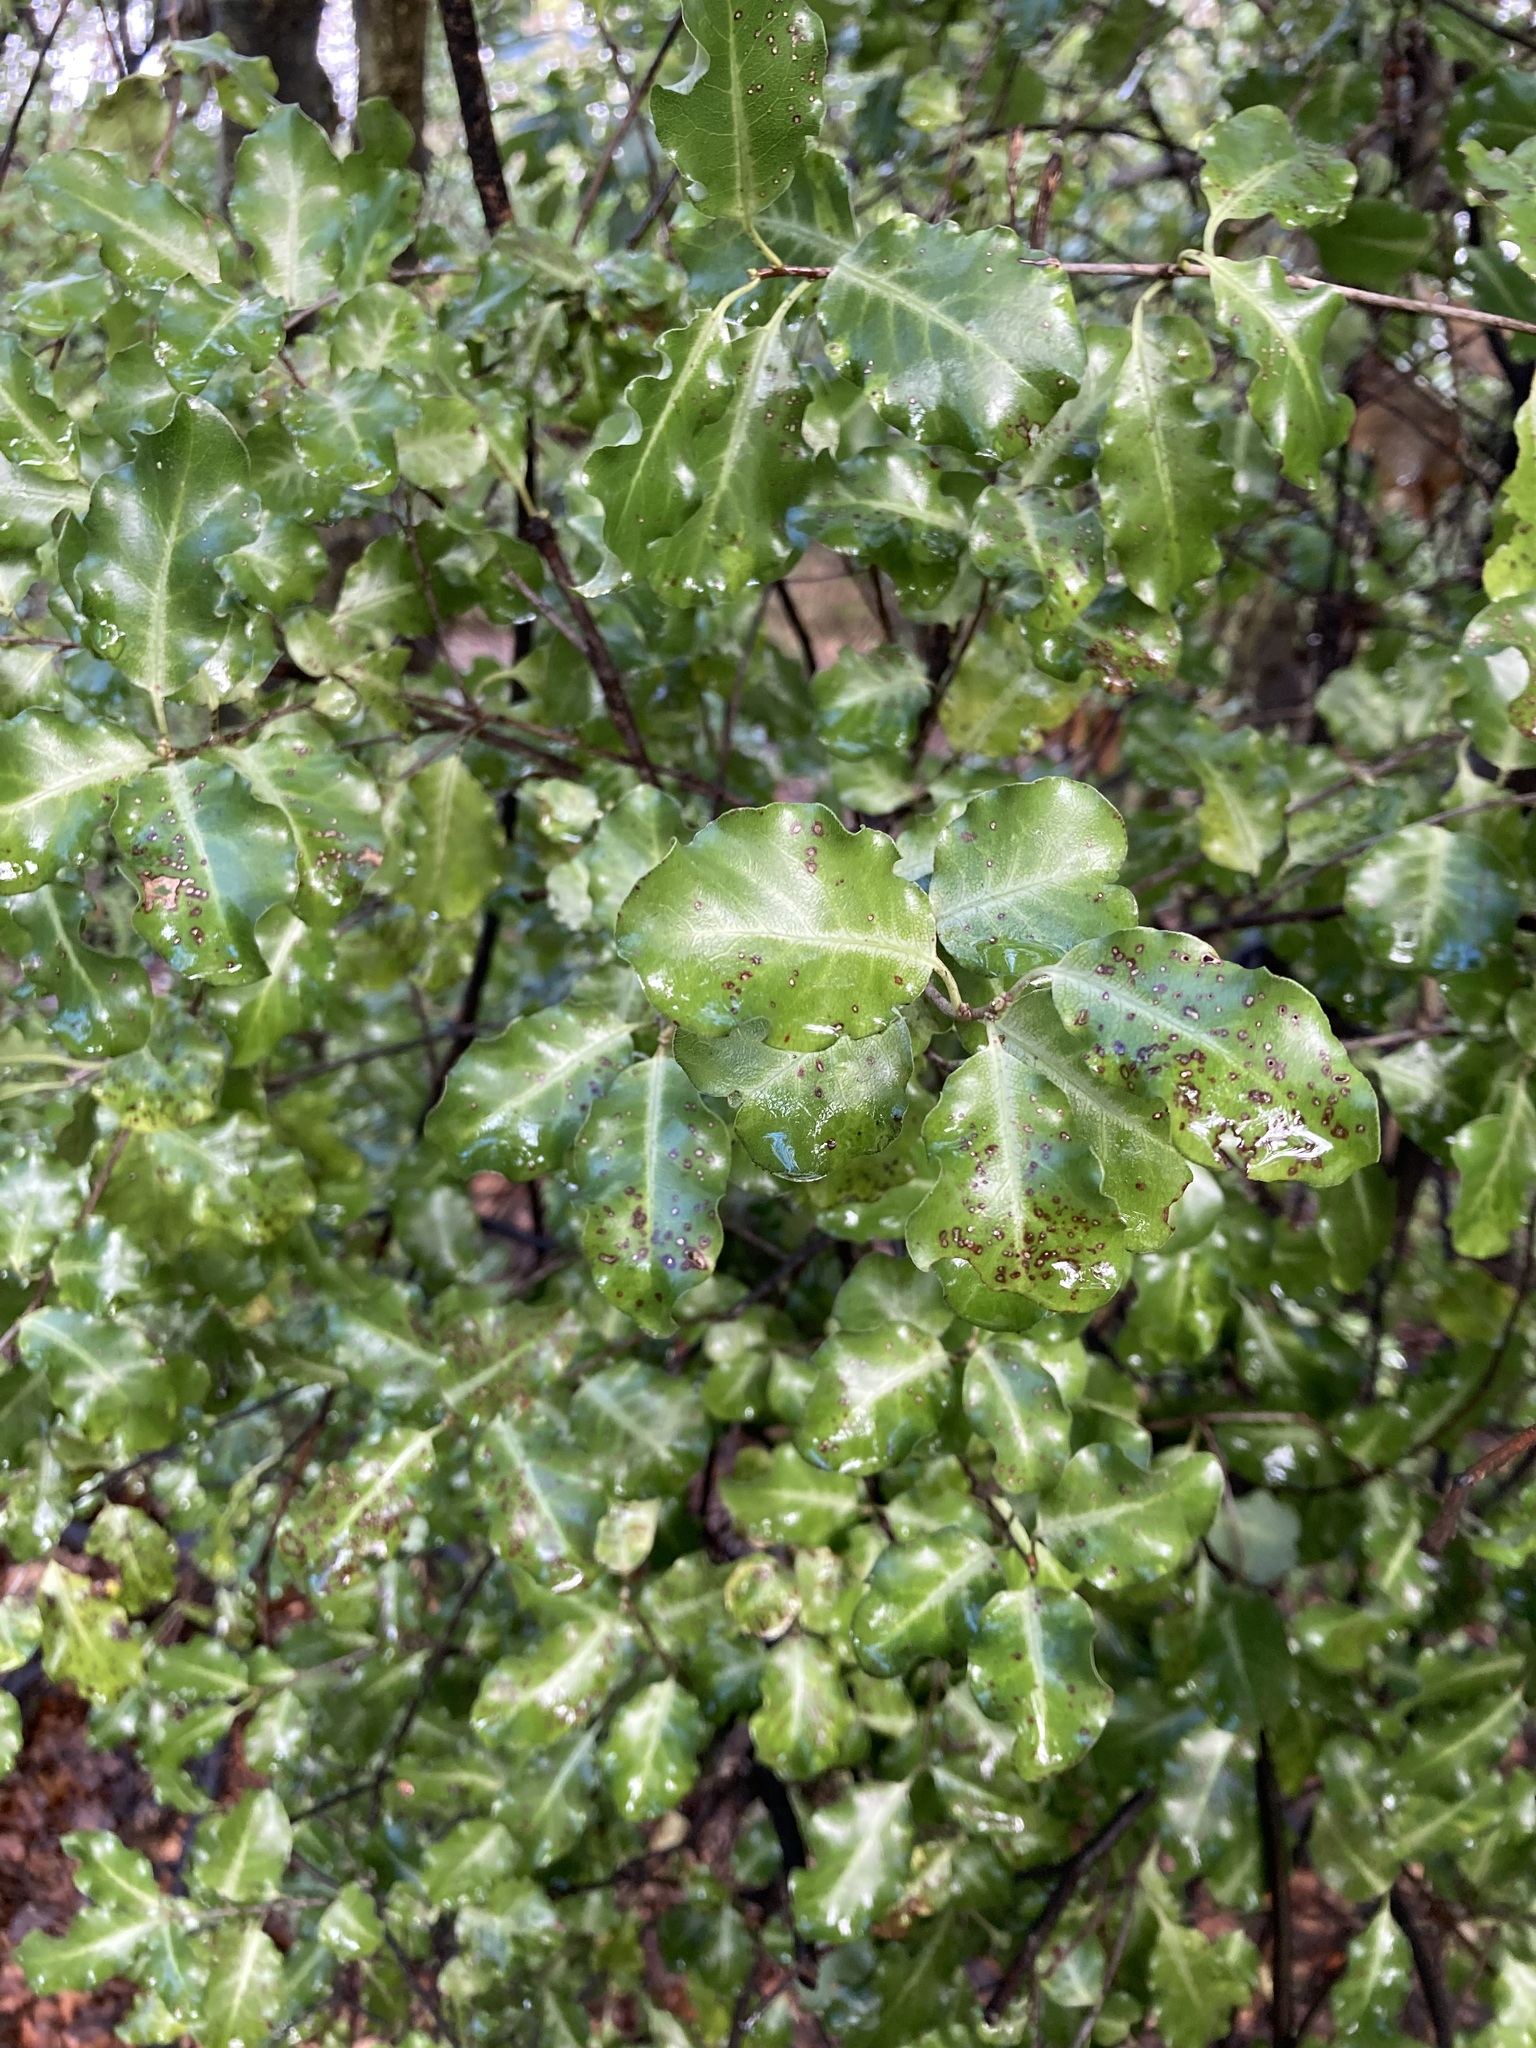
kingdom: Plantae
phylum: Tracheophyta
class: Magnoliopsida
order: Apiales
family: Pittosporaceae
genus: Pittosporum
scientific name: Pittosporum tenuifolium
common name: Kohuhu
